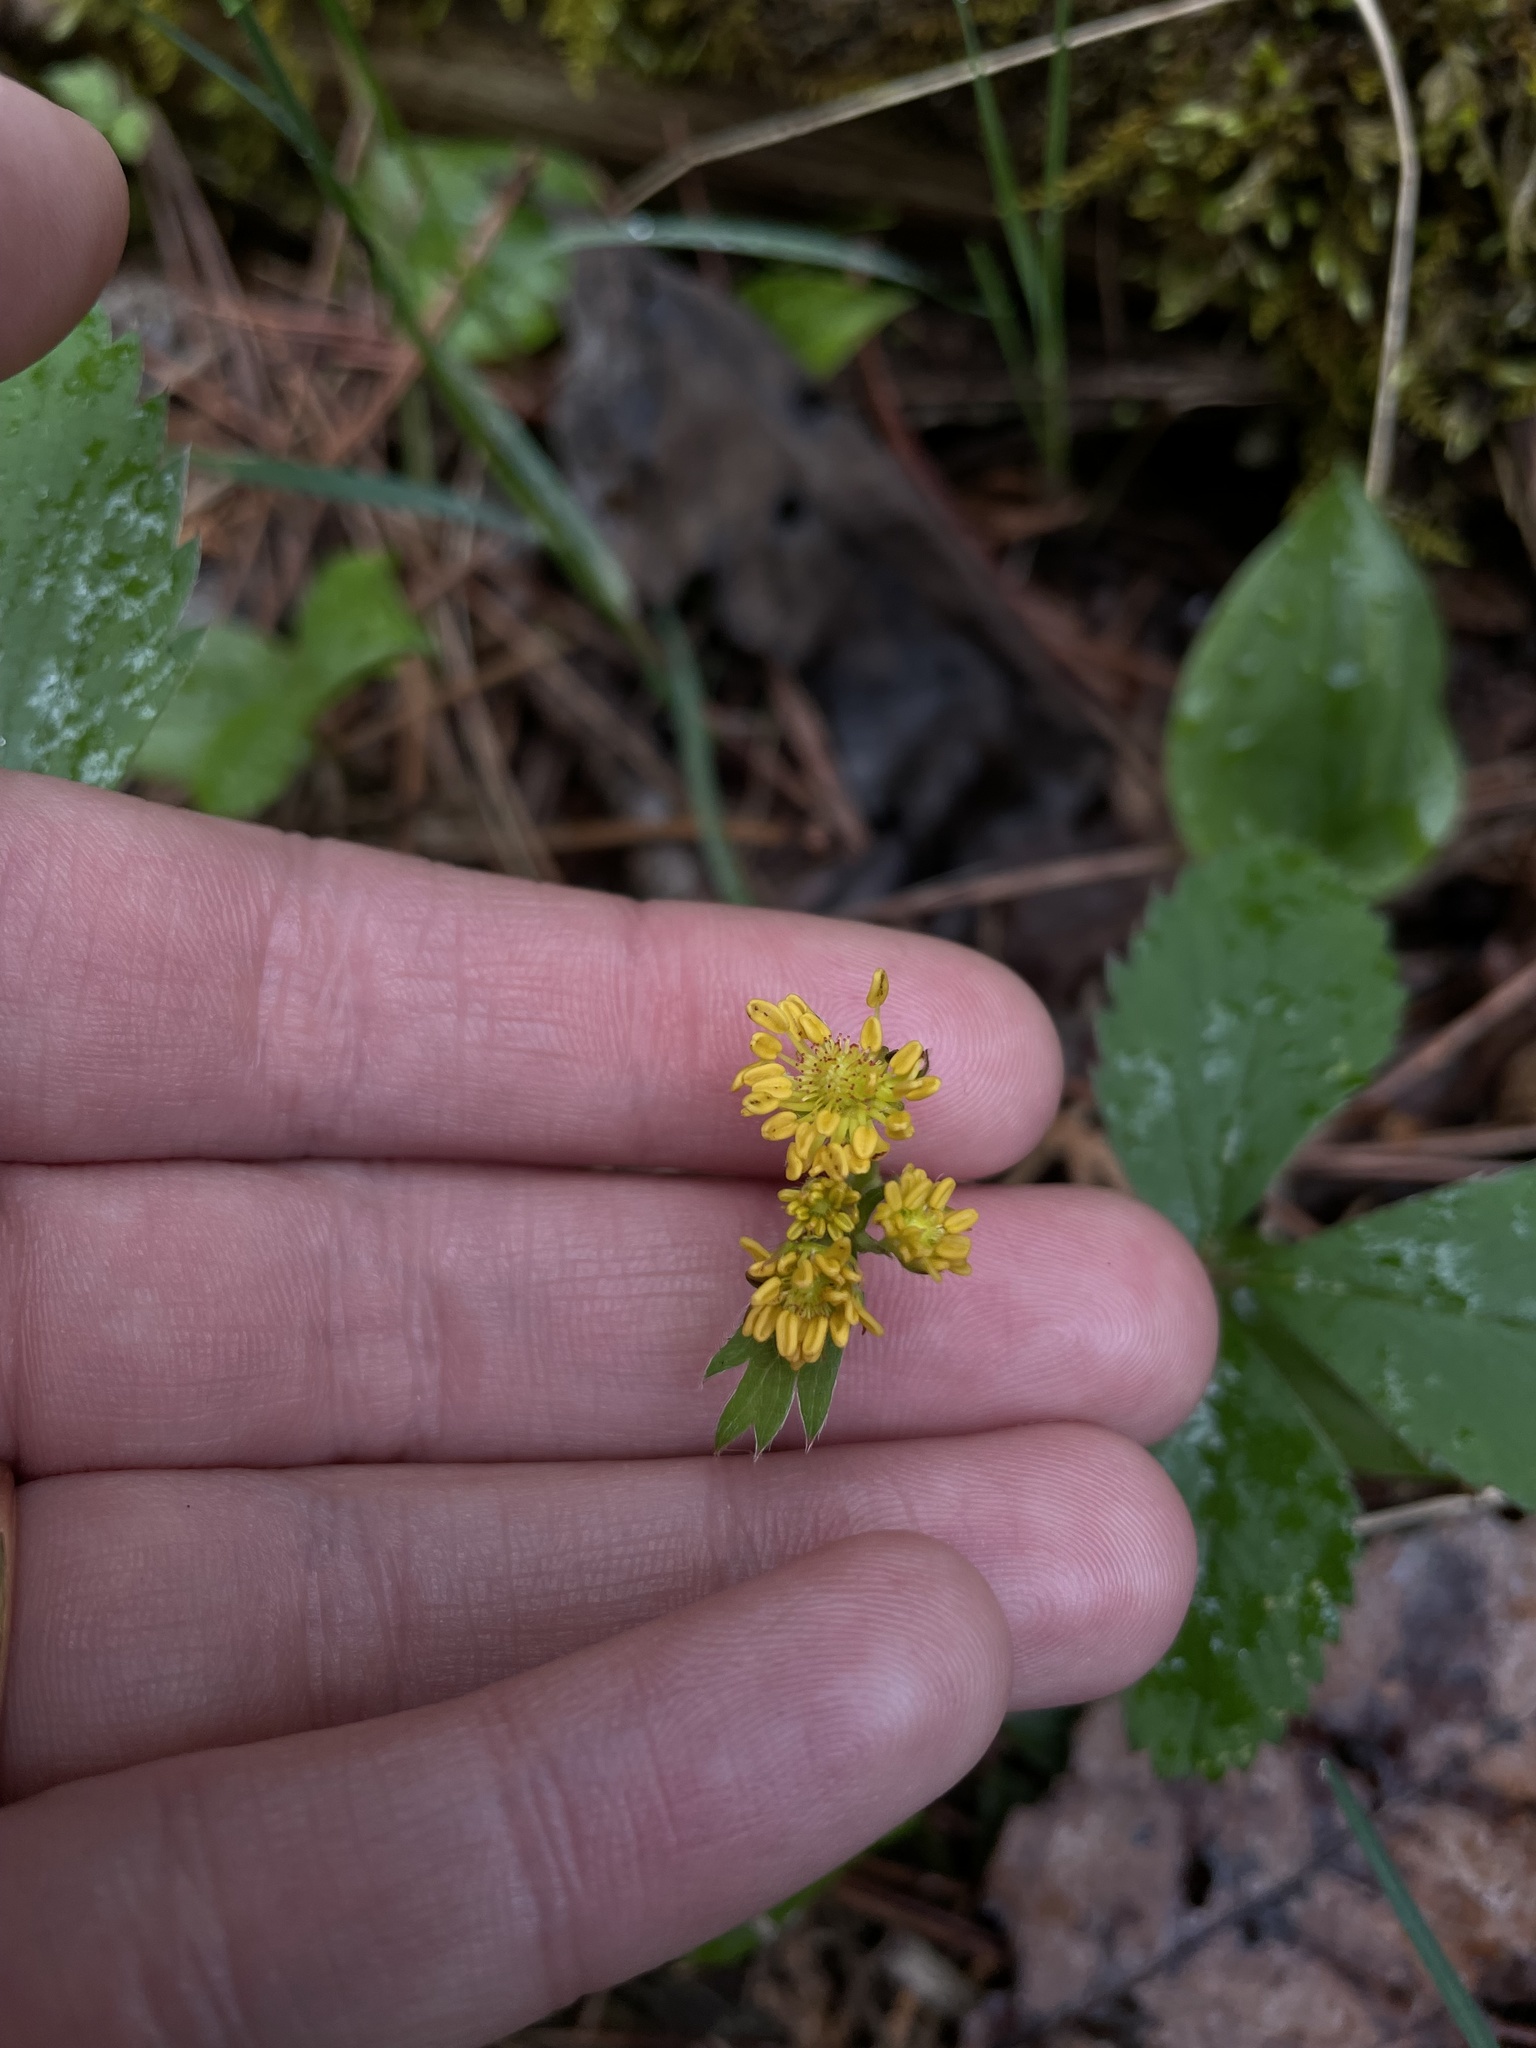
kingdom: Plantae
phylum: Tracheophyta
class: Magnoliopsida
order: Rosales
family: Rosaceae
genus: Fragaria
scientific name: Fragaria virginiana
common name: Thickleaved wild strawberry
